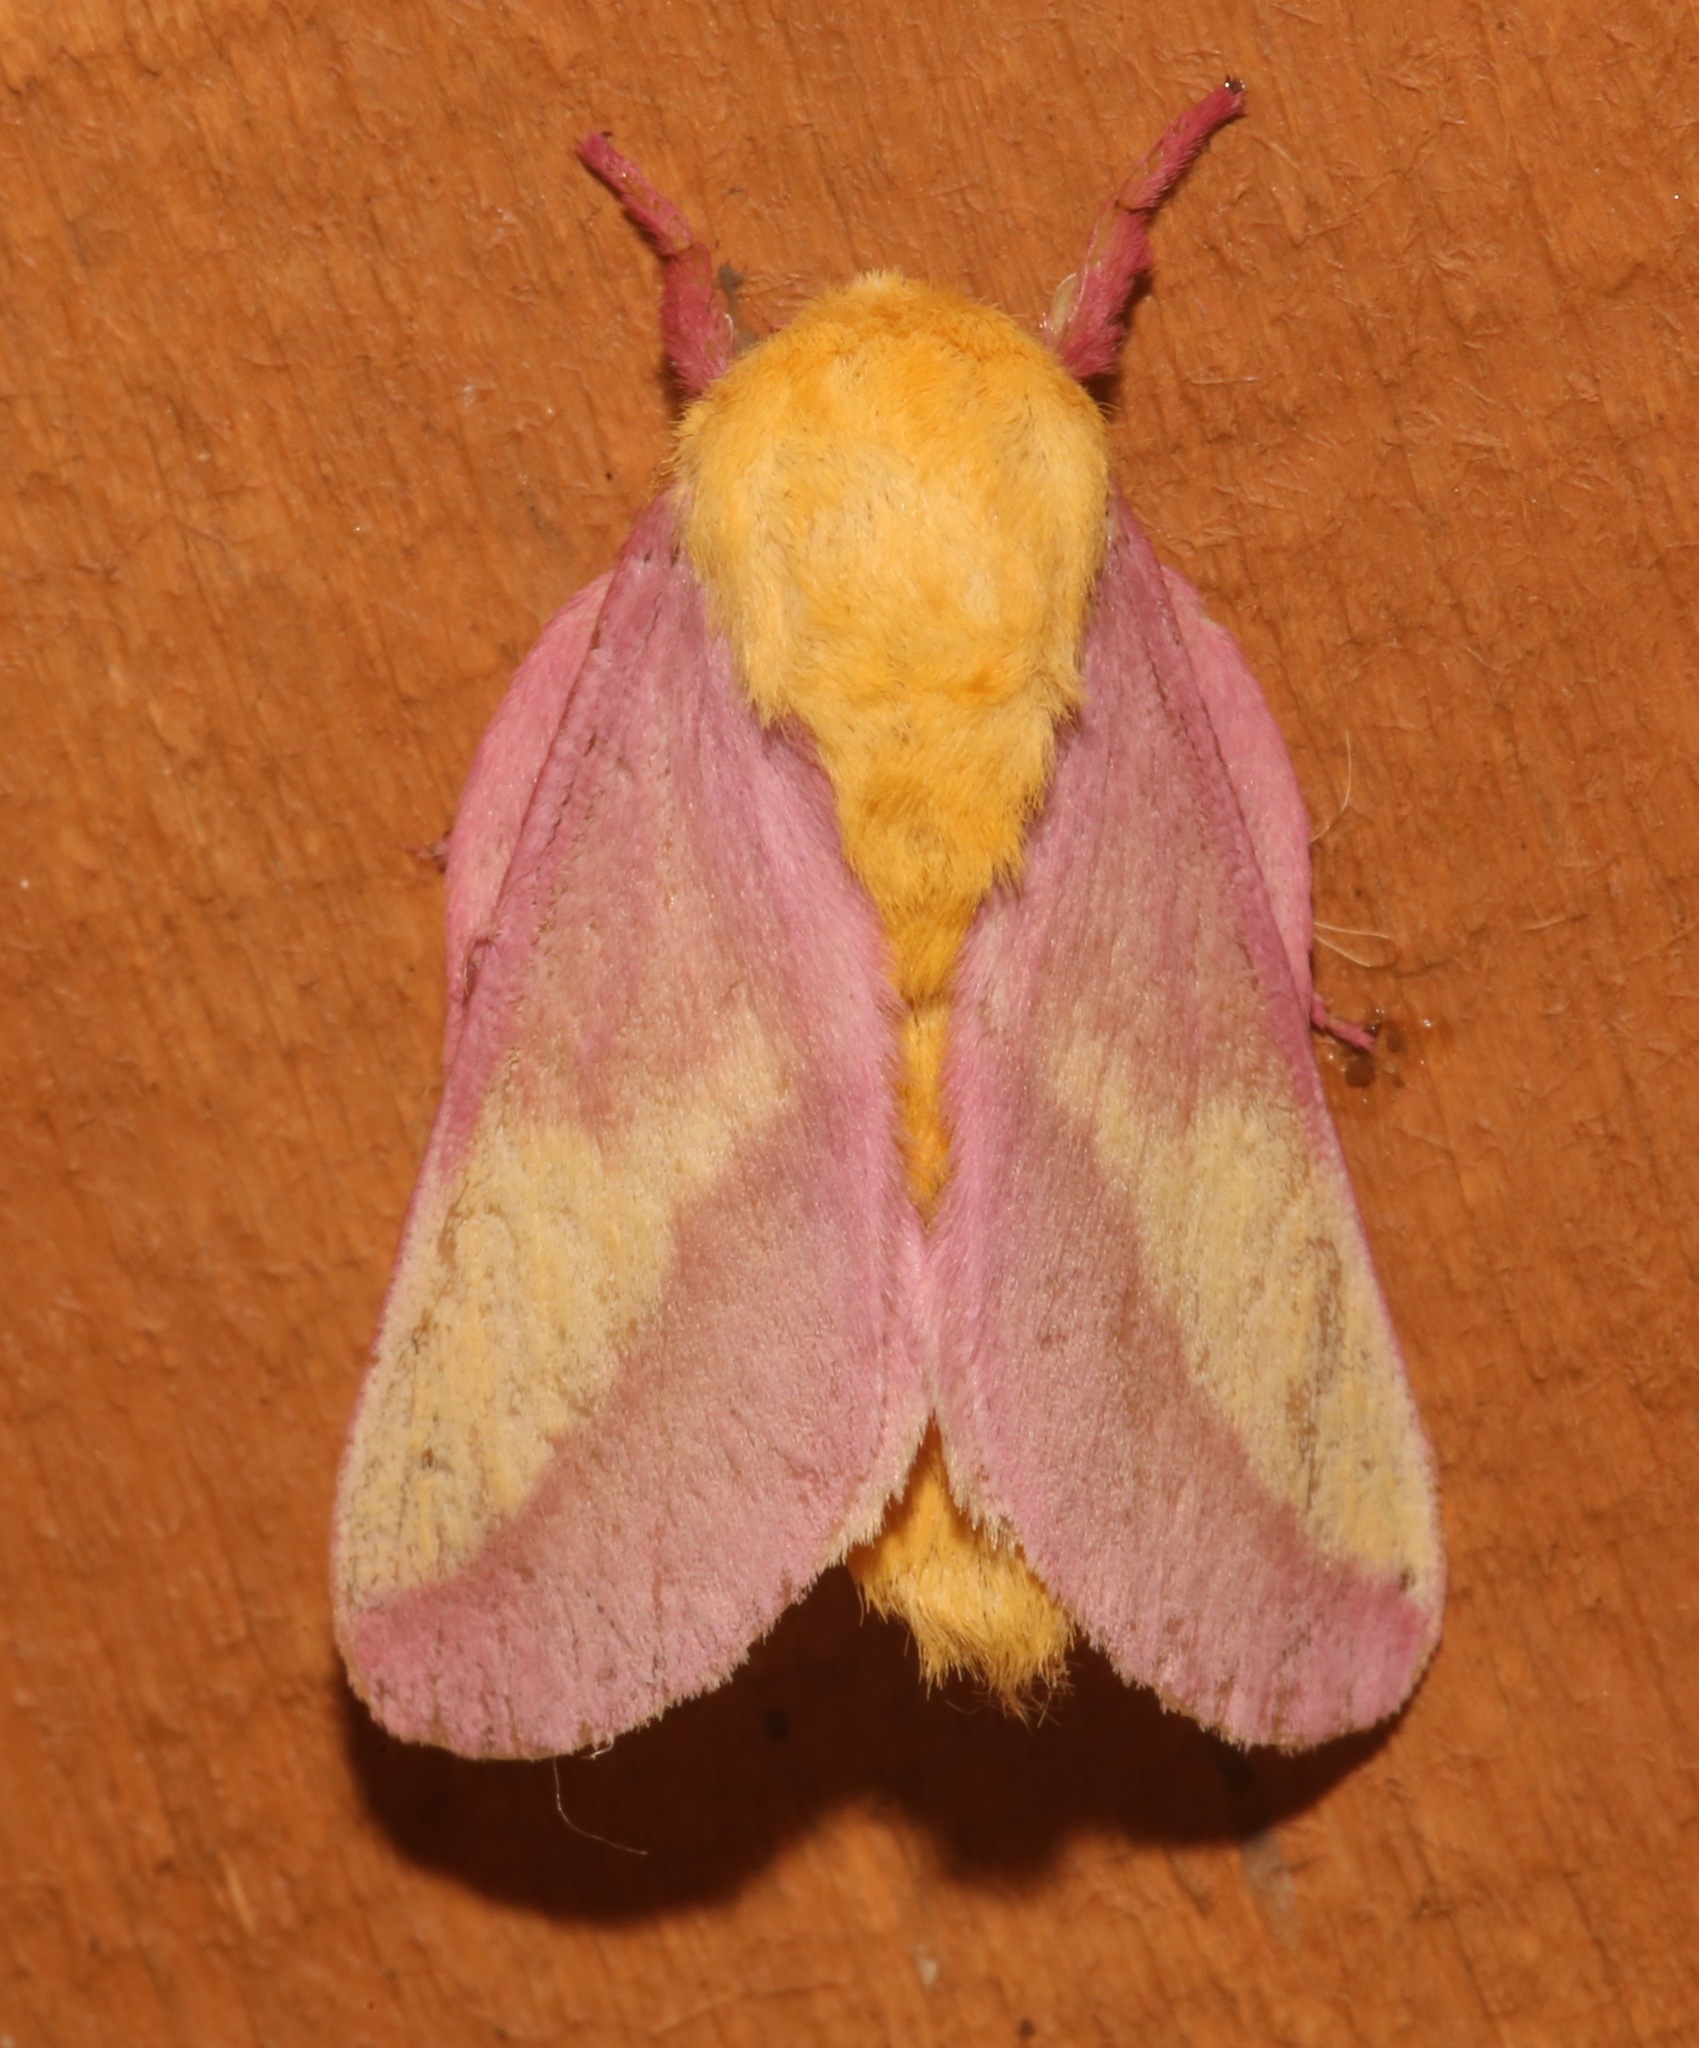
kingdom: Animalia
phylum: Arthropoda
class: Insecta
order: Lepidoptera
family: Saturniidae
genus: Dryocampa
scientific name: Dryocampa rubicunda
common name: Rosy maple moth
